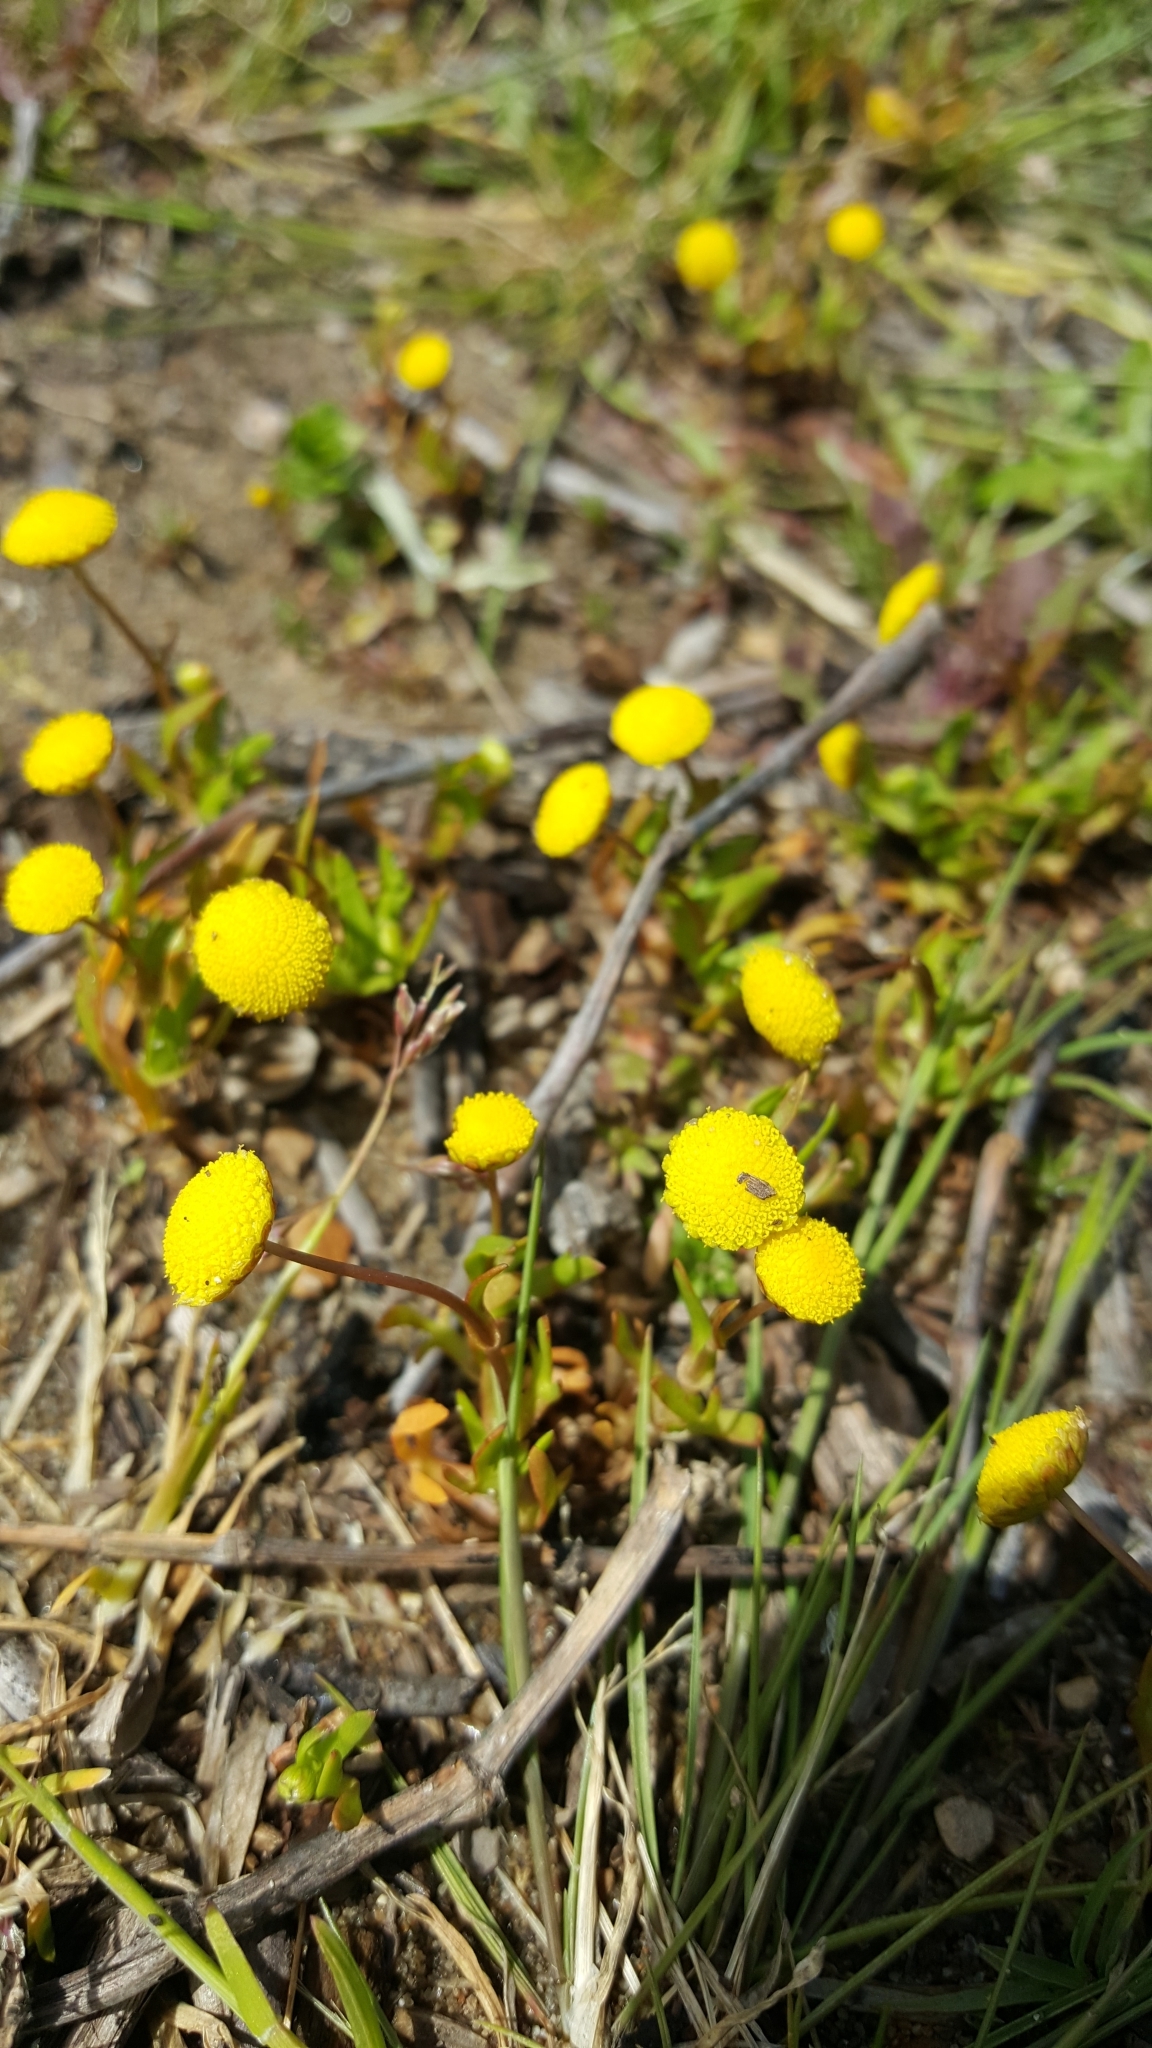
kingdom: Plantae
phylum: Tracheophyta
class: Magnoliopsida
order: Asterales
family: Asteraceae
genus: Cotula
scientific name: Cotula coronopifolia
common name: Buttonweed
